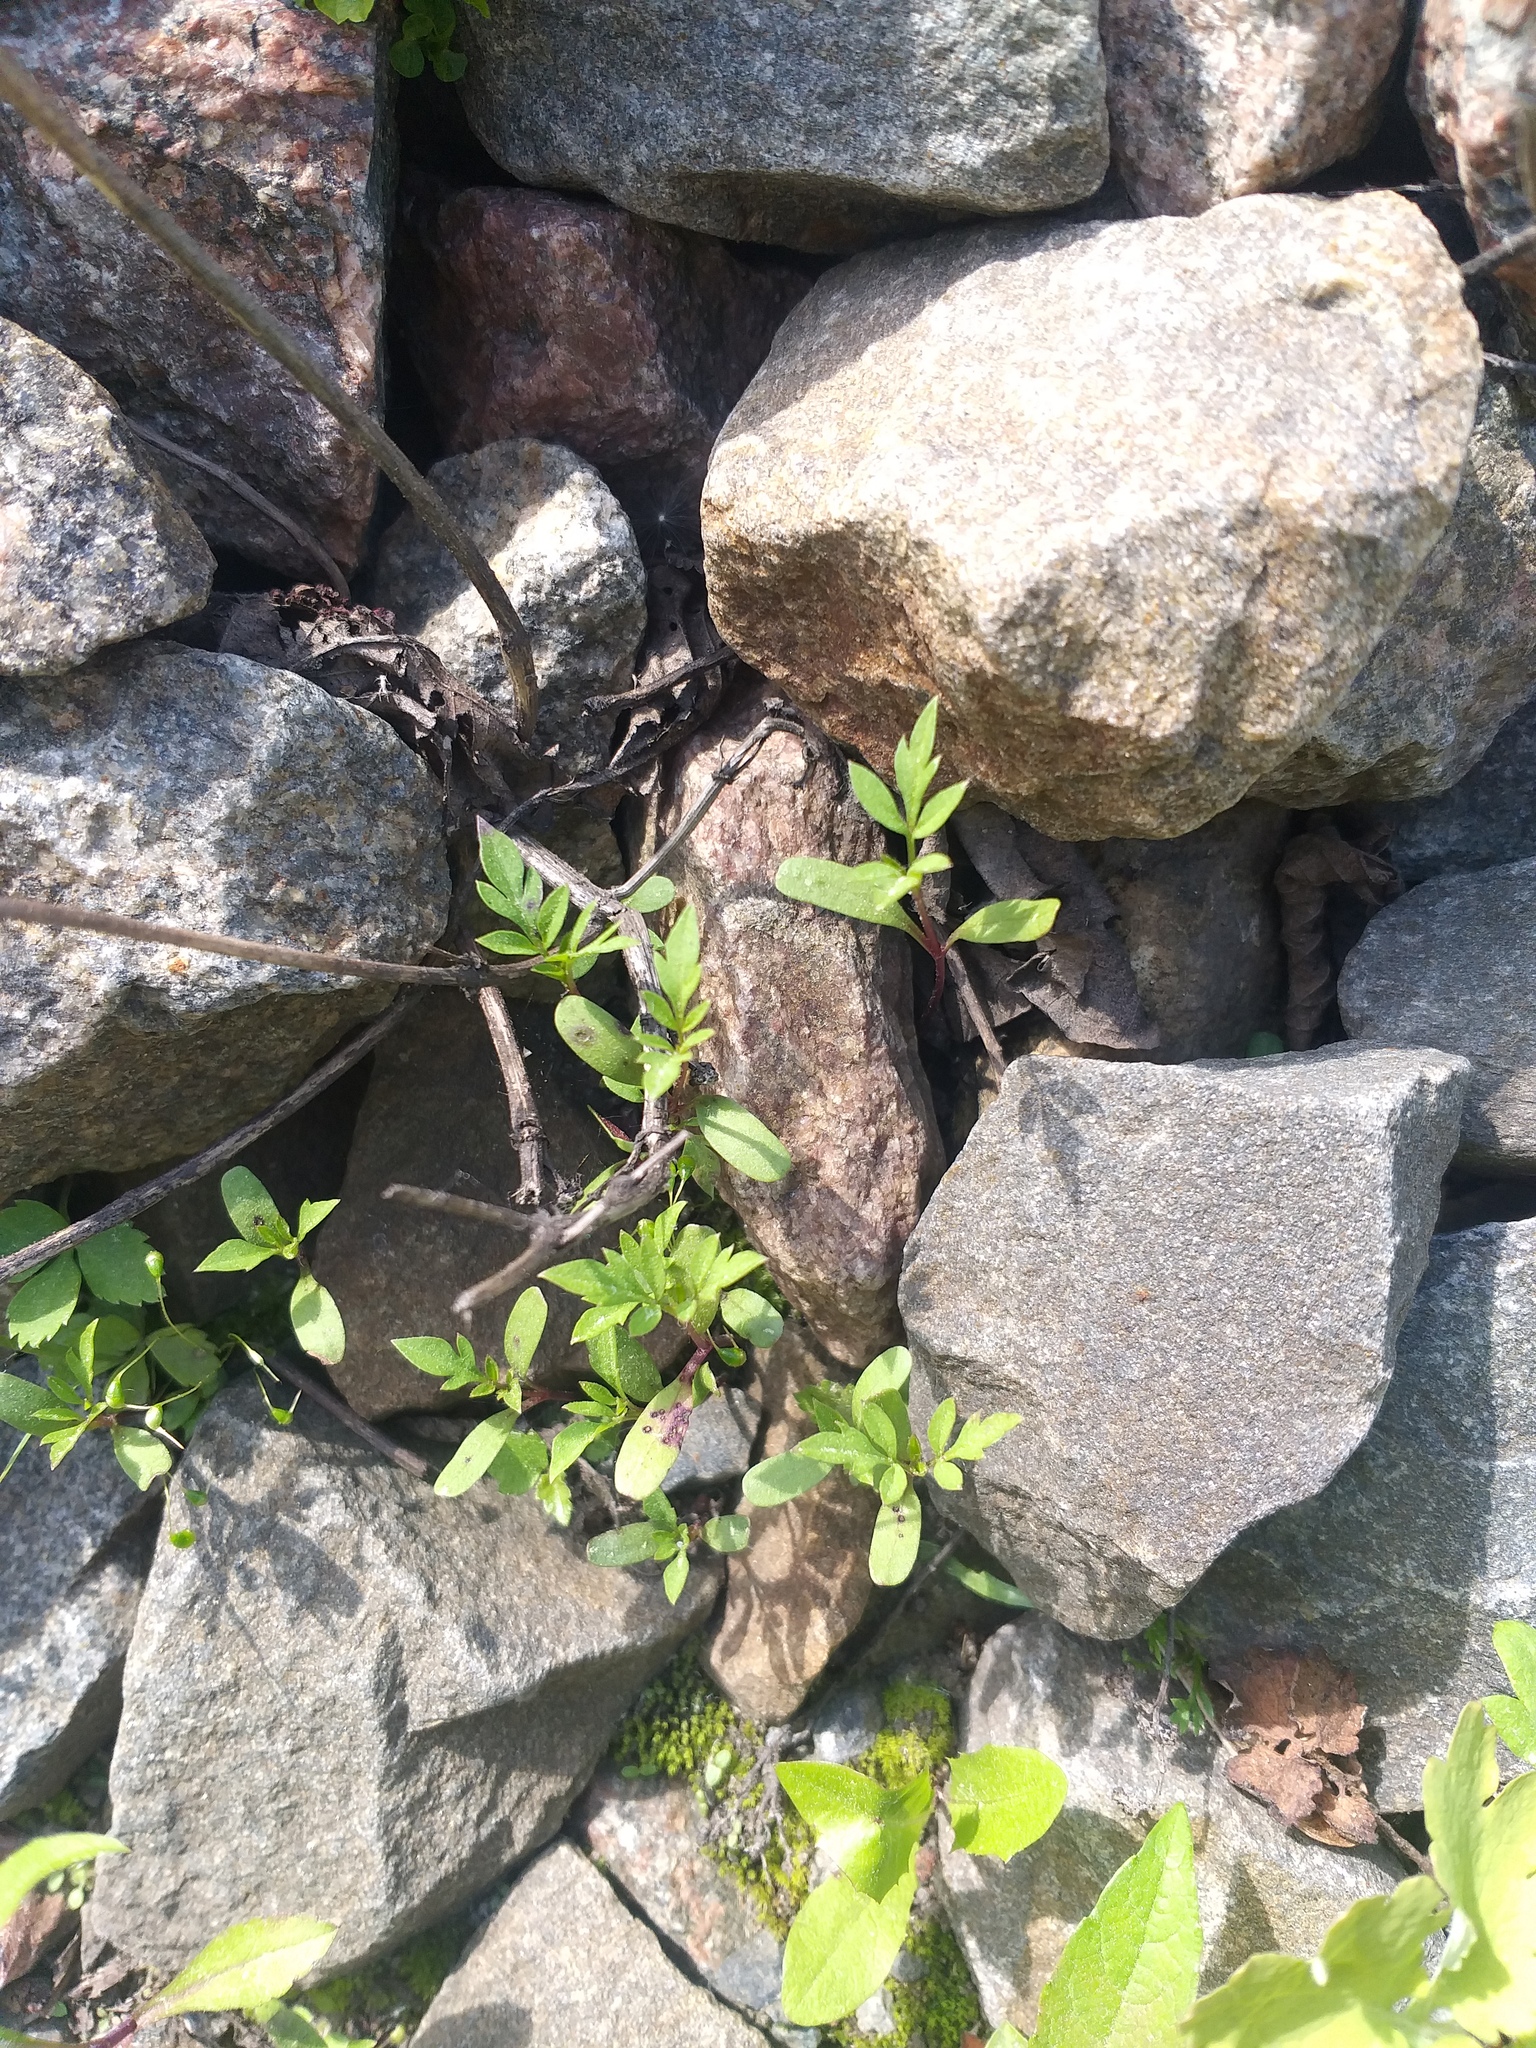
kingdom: Plantae
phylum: Tracheophyta
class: Magnoliopsida
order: Asterales
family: Asteraceae
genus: Bidens
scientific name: Bidens frondosa
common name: Beggarticks
